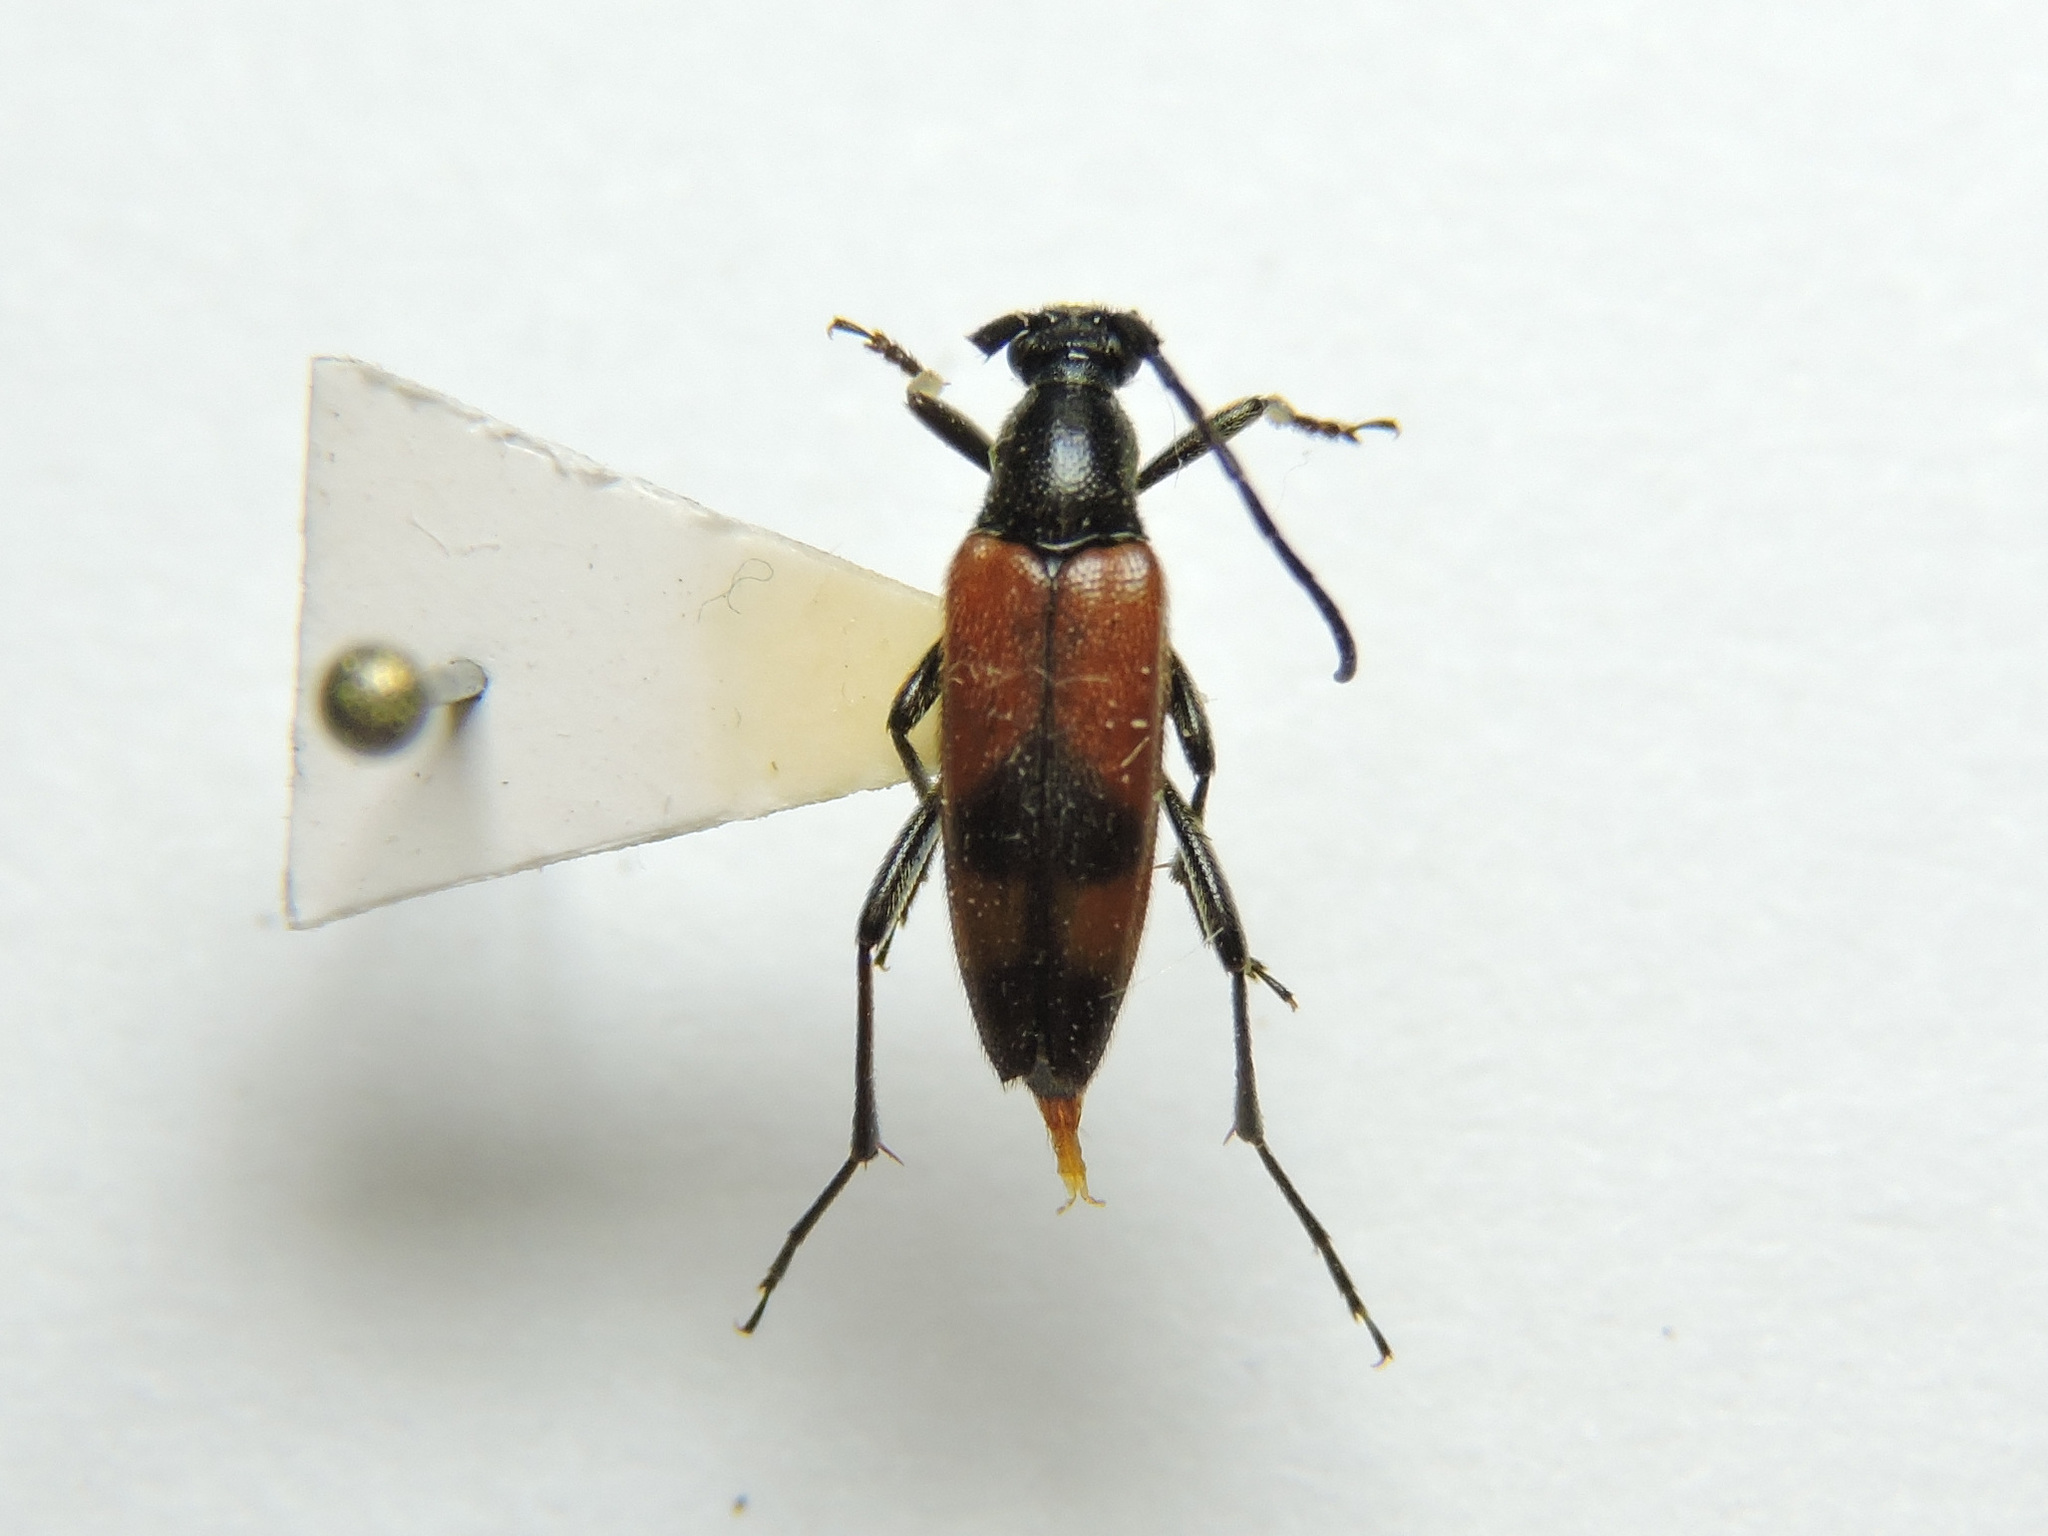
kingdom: Animalia
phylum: Arthropoda
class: Insecta
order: Coleoptera
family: Cerambycidae
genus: Stenurella
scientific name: Stenurella bifasciata
